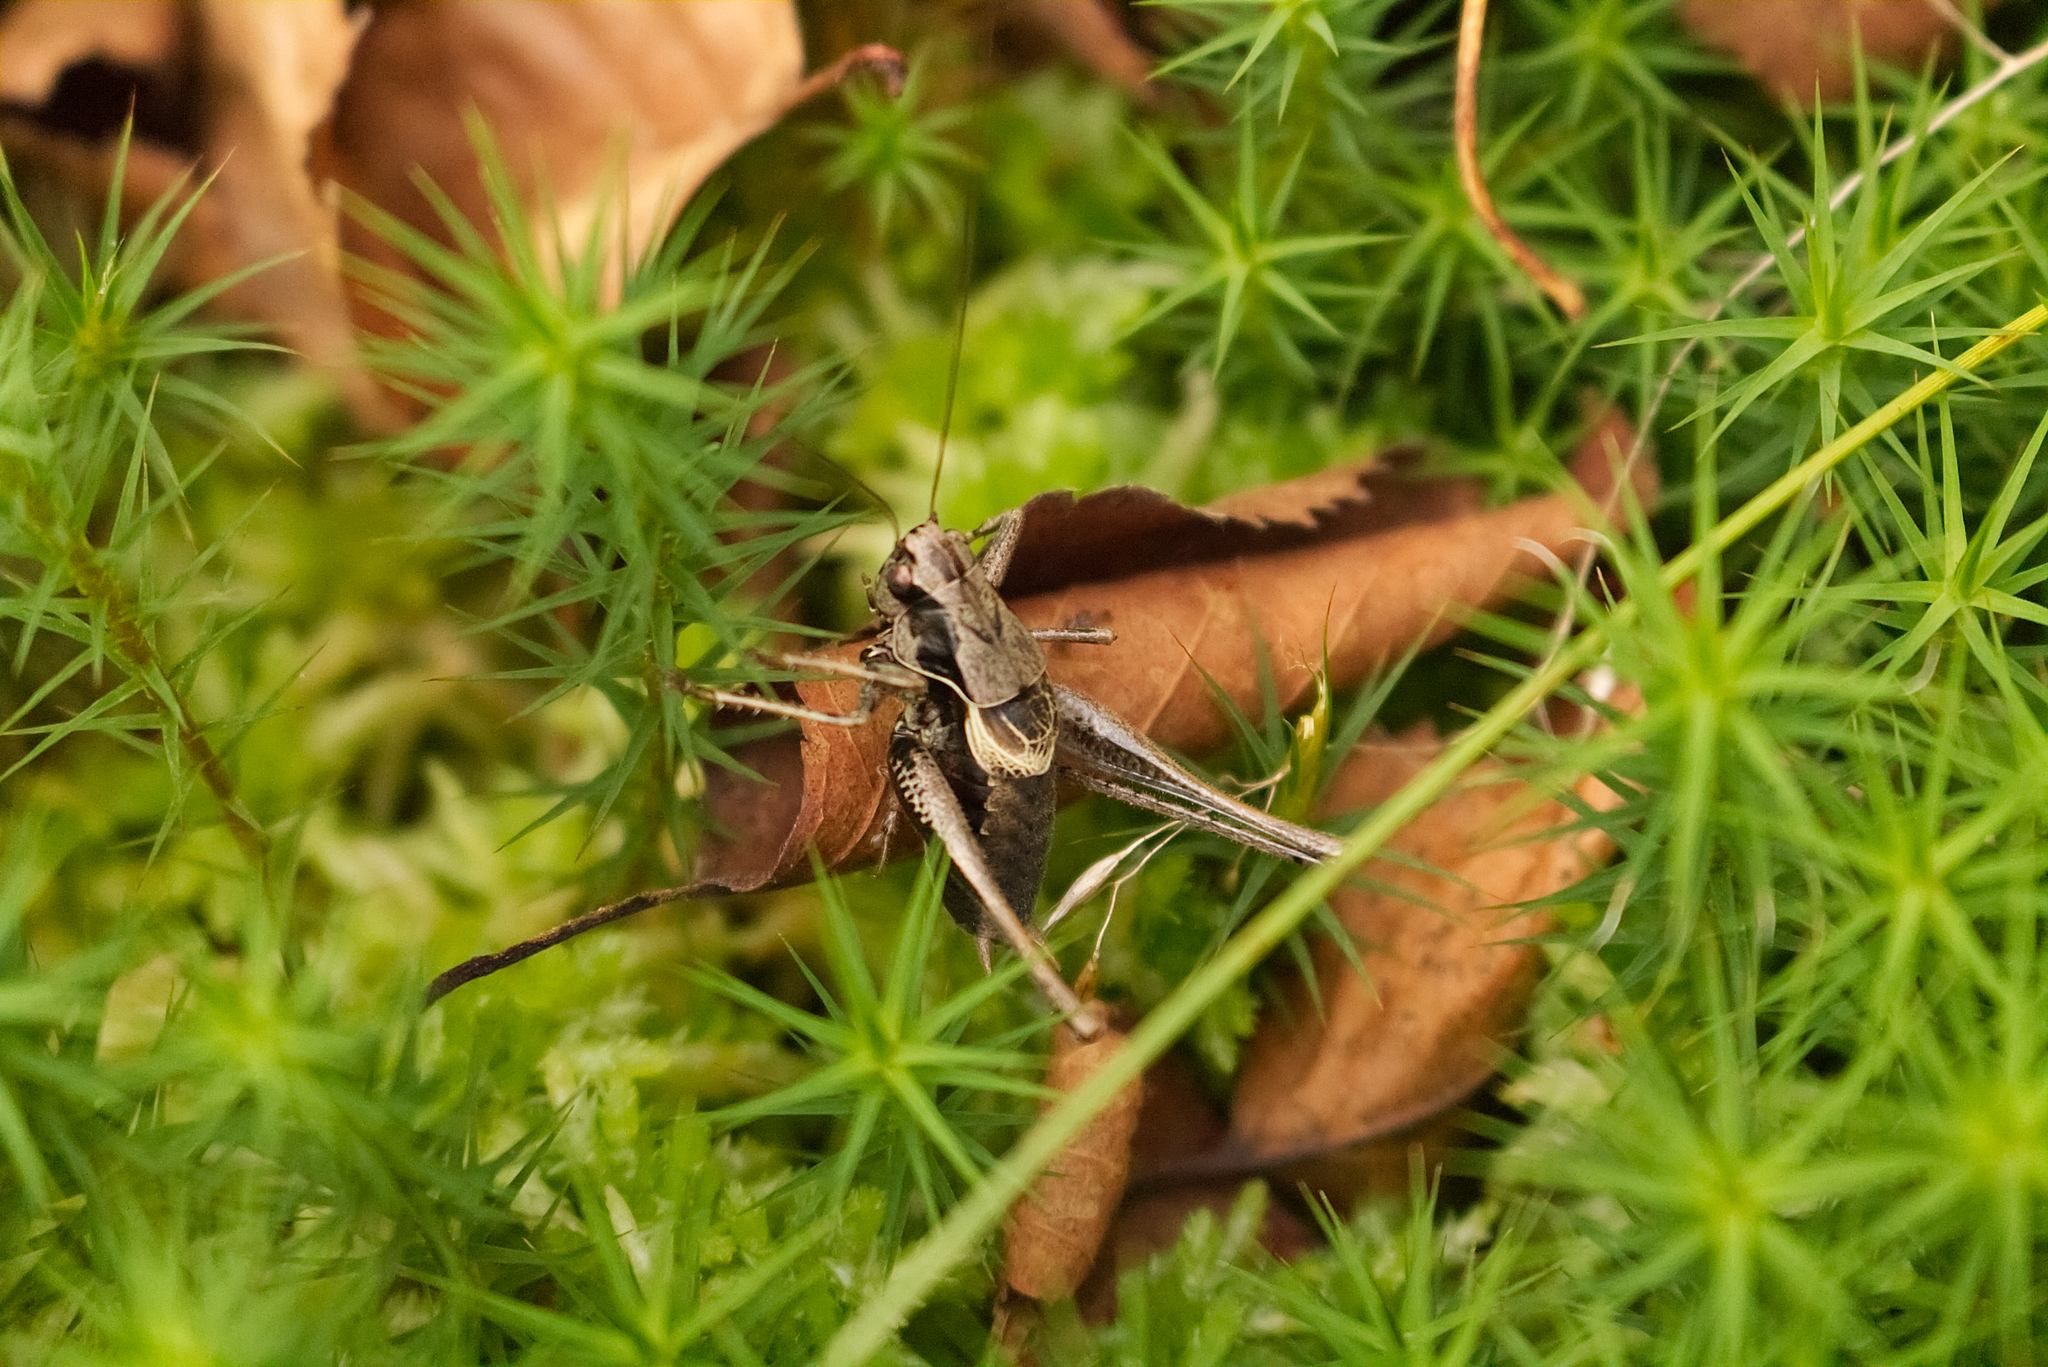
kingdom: Animalia
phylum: Arthropoda
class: Insecta
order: Orthoptera
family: Tettigoniidae
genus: Pholidoptera
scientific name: Pholidoptera griseoaptera
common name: Dark bush-cricket
